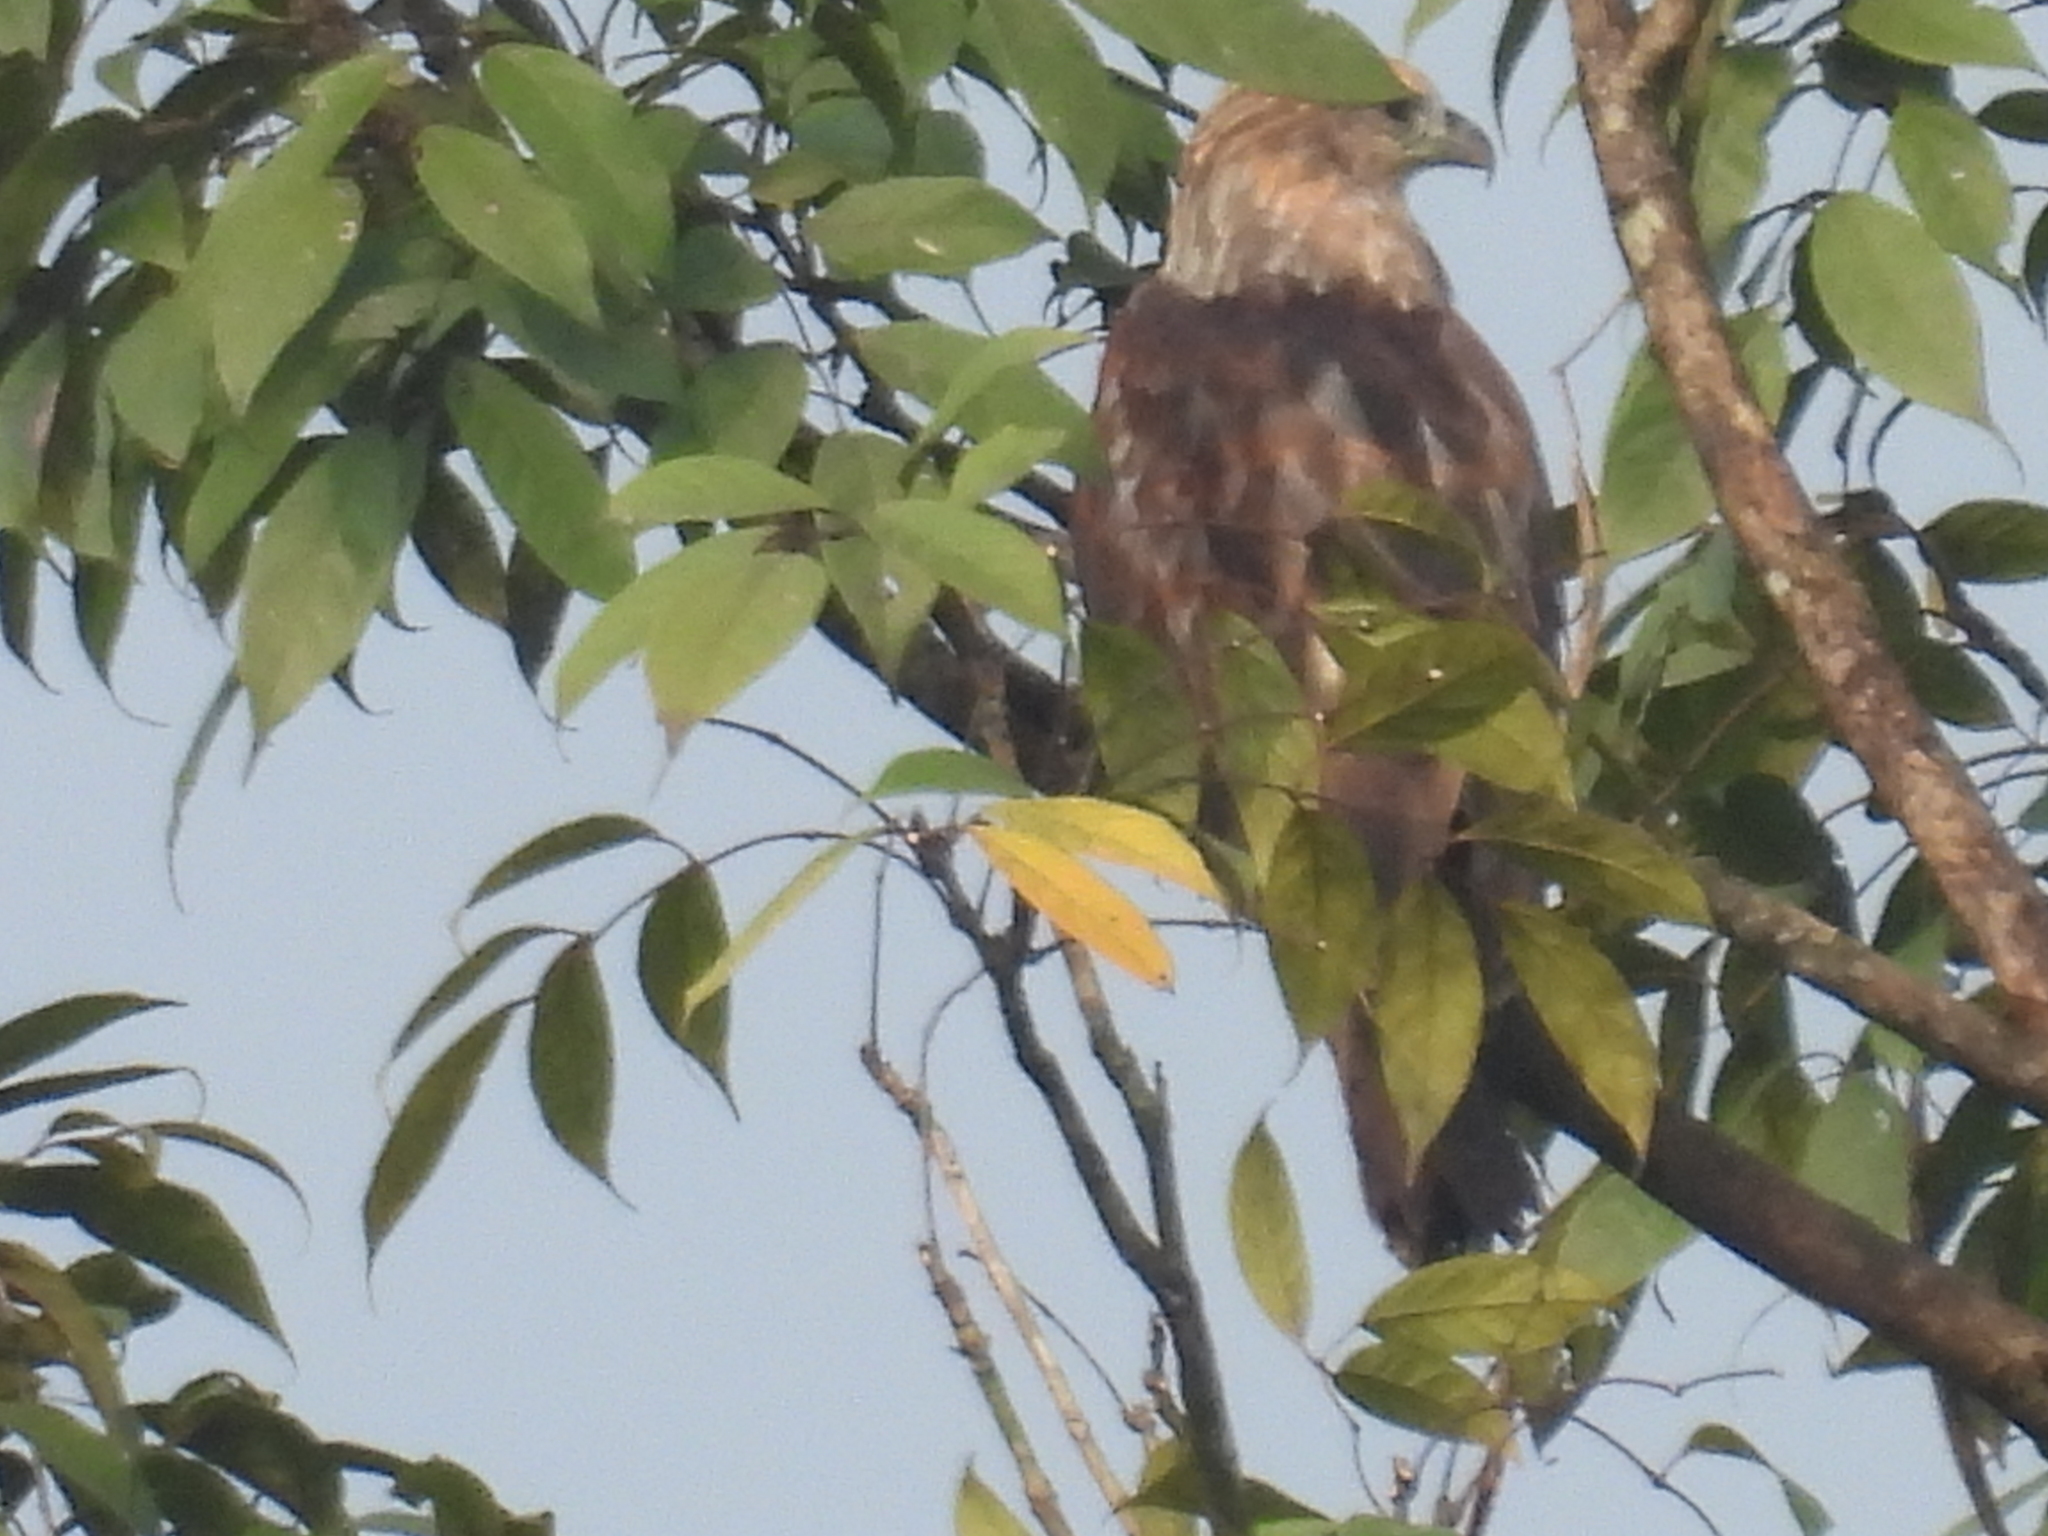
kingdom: Animalia
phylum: Chordata
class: Aves
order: Accipitriformes
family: Accipitridae
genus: Haliastur
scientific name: Haliastur indus
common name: Brahminy kite
